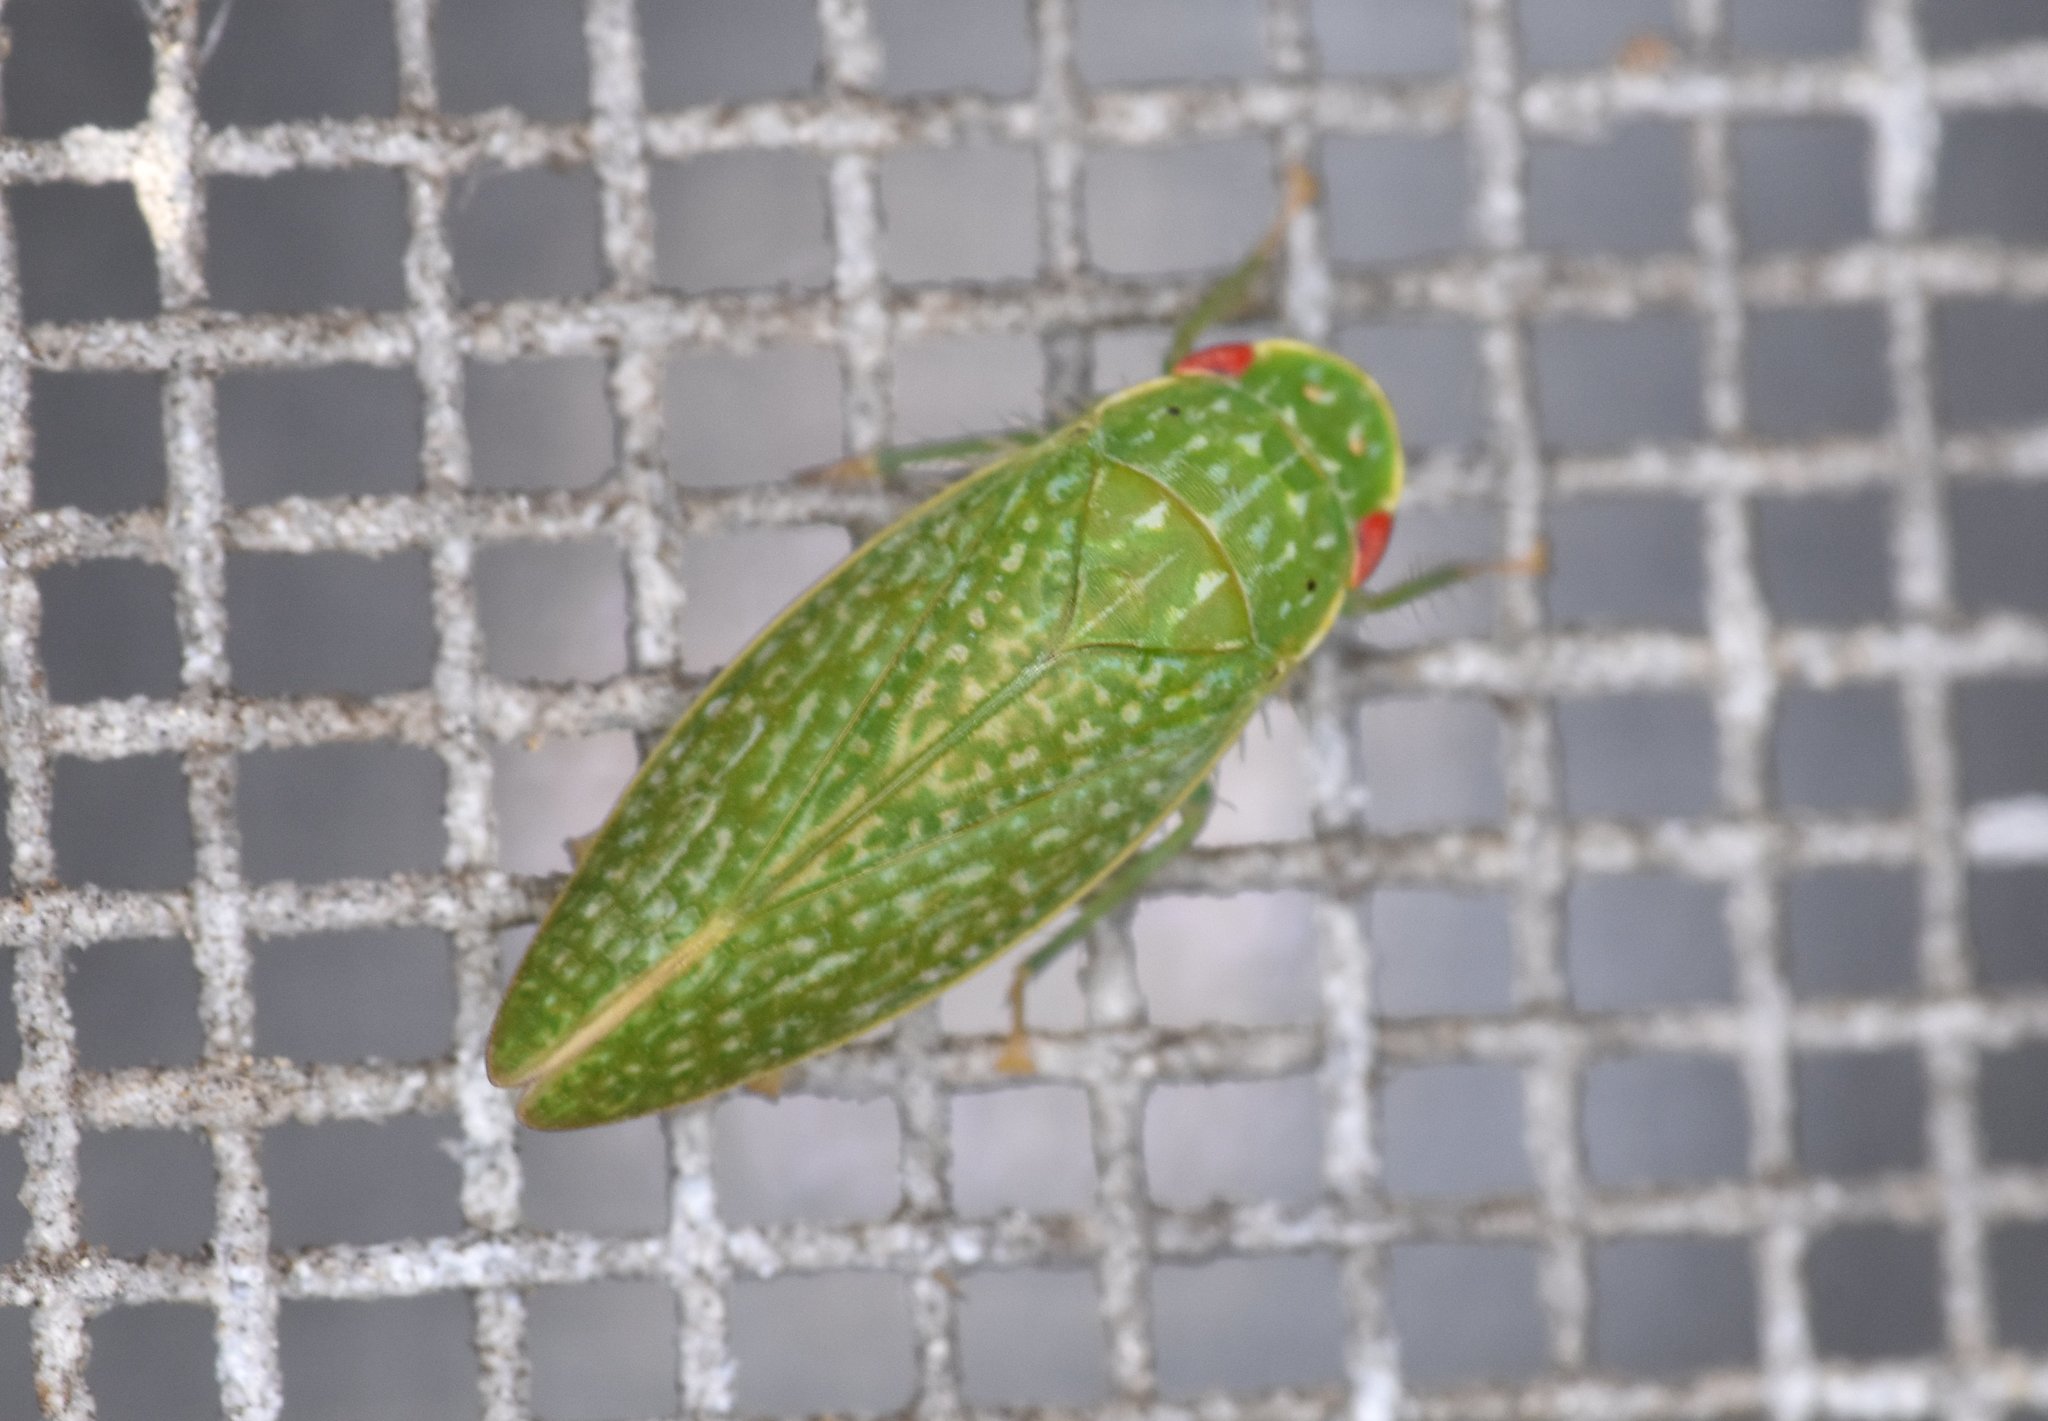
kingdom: Animalia
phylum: Arthropoda
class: Insecta
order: Hemiptera
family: Cicadellidae
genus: Rugosana
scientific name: Rugosana querci
